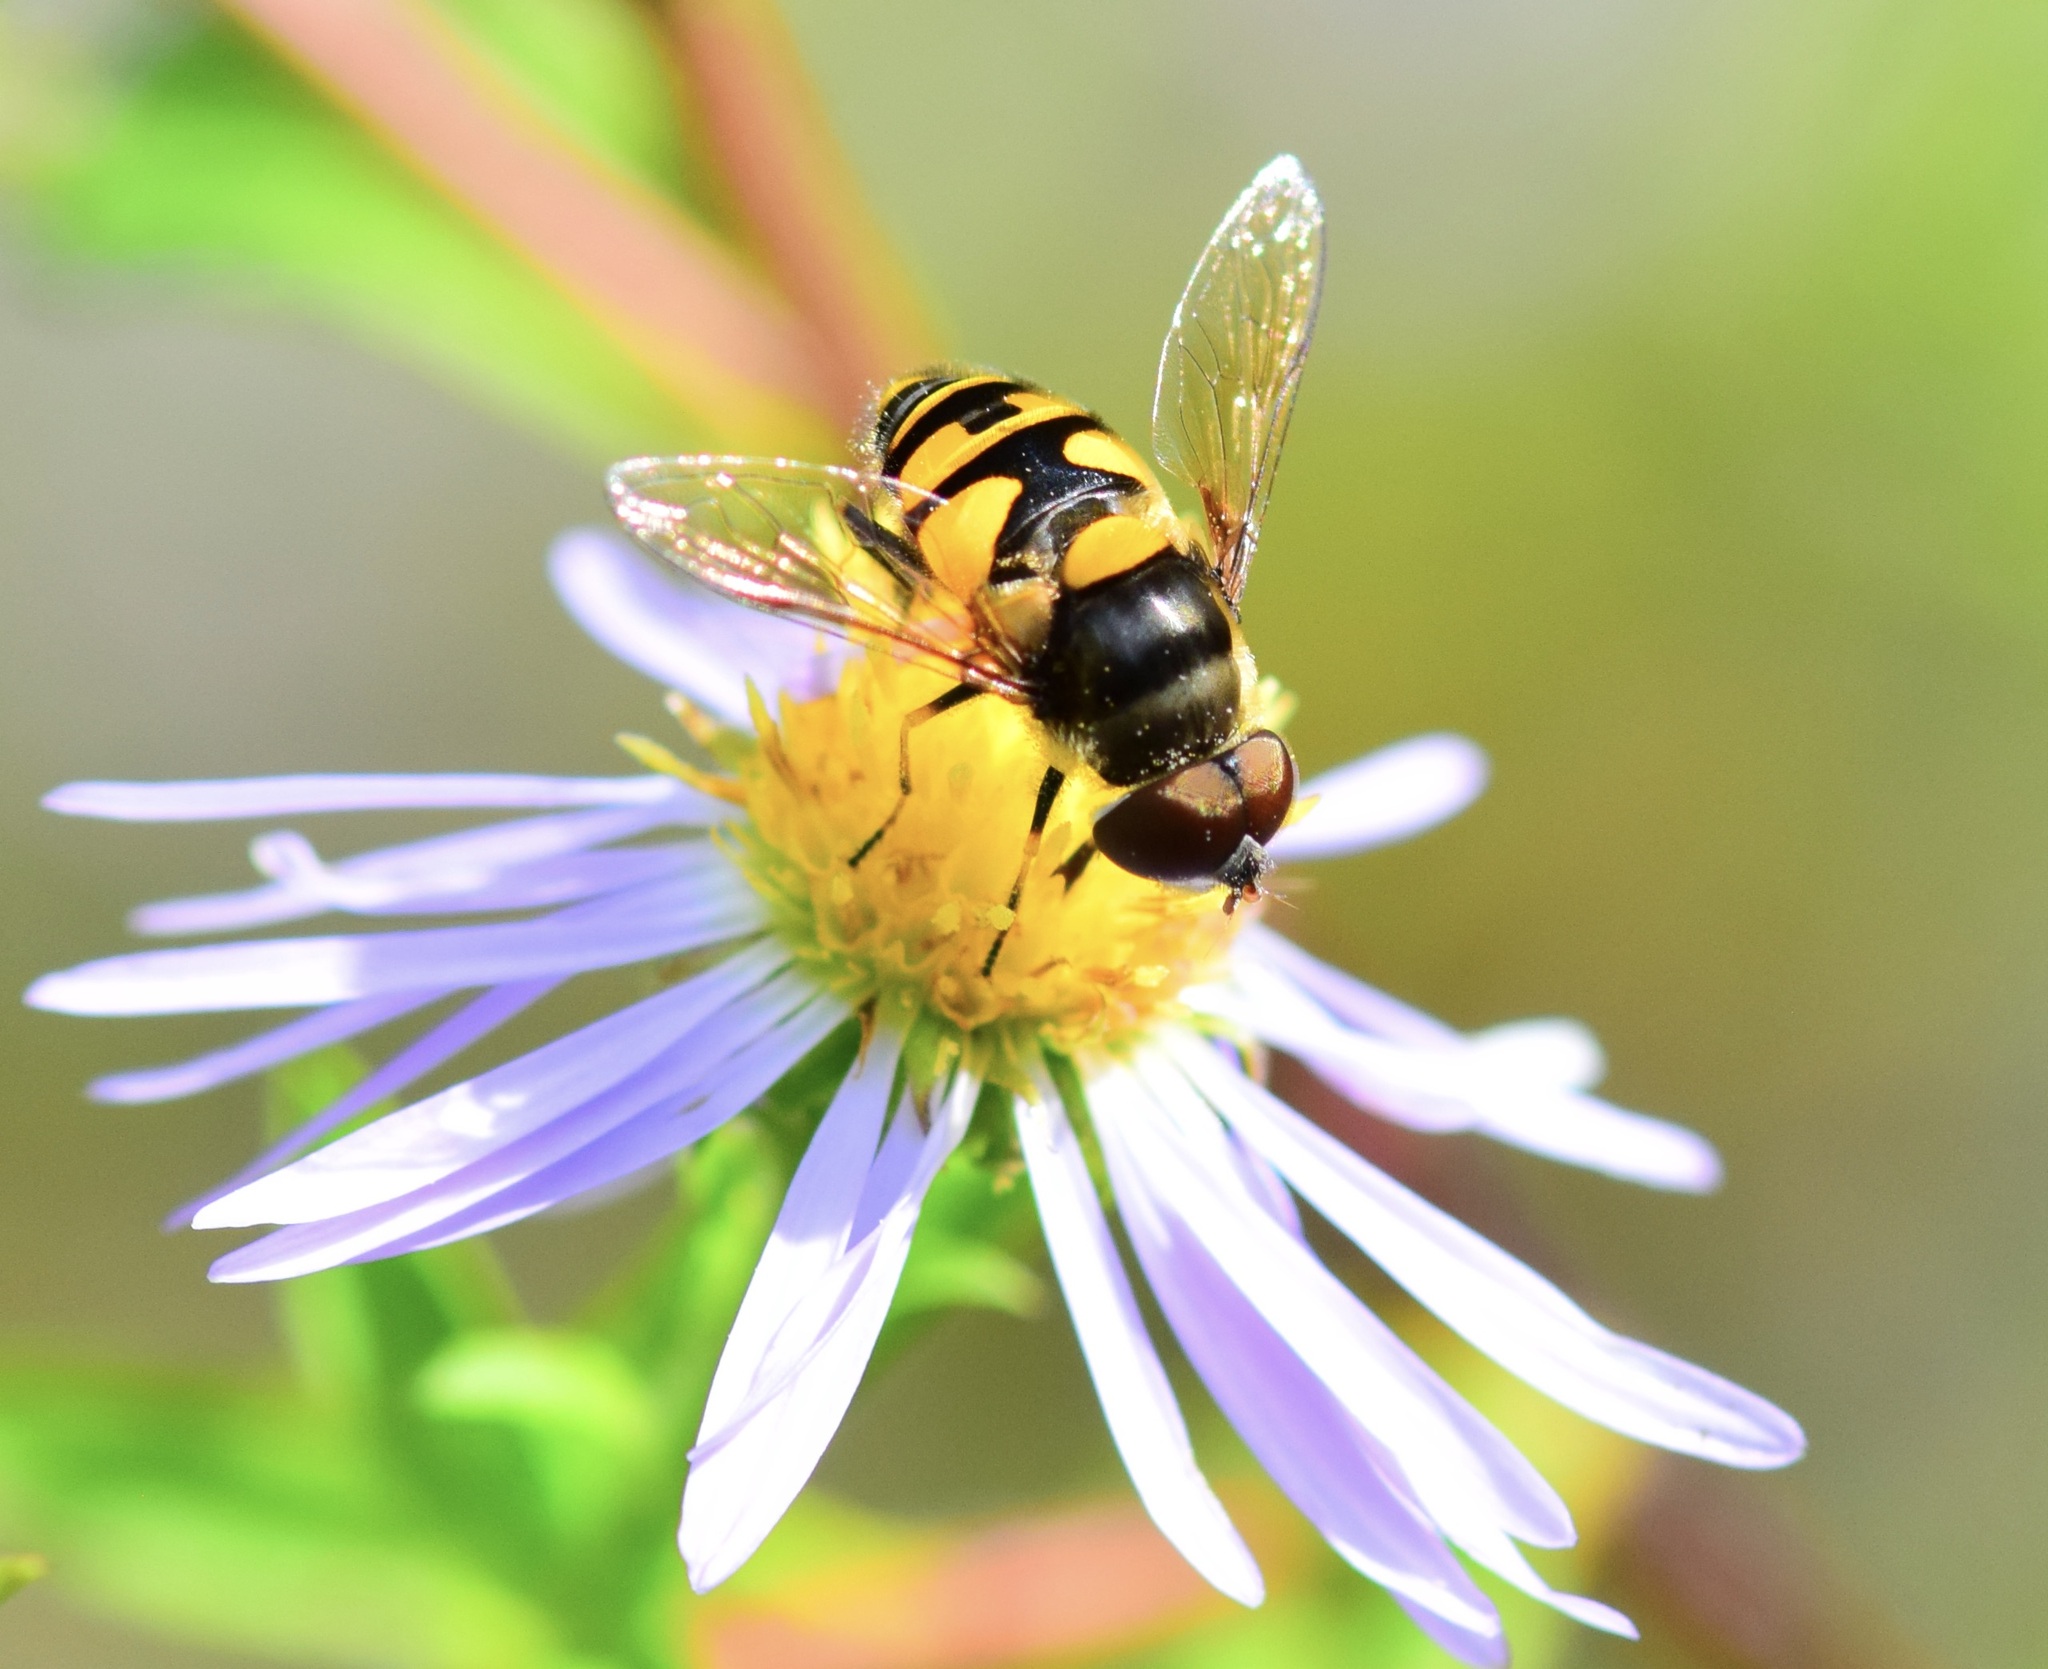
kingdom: Animalia
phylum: Arthropoda
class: Insecta
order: Diptera
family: Syrphidae
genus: Eristalis
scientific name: Eristalis transversa
